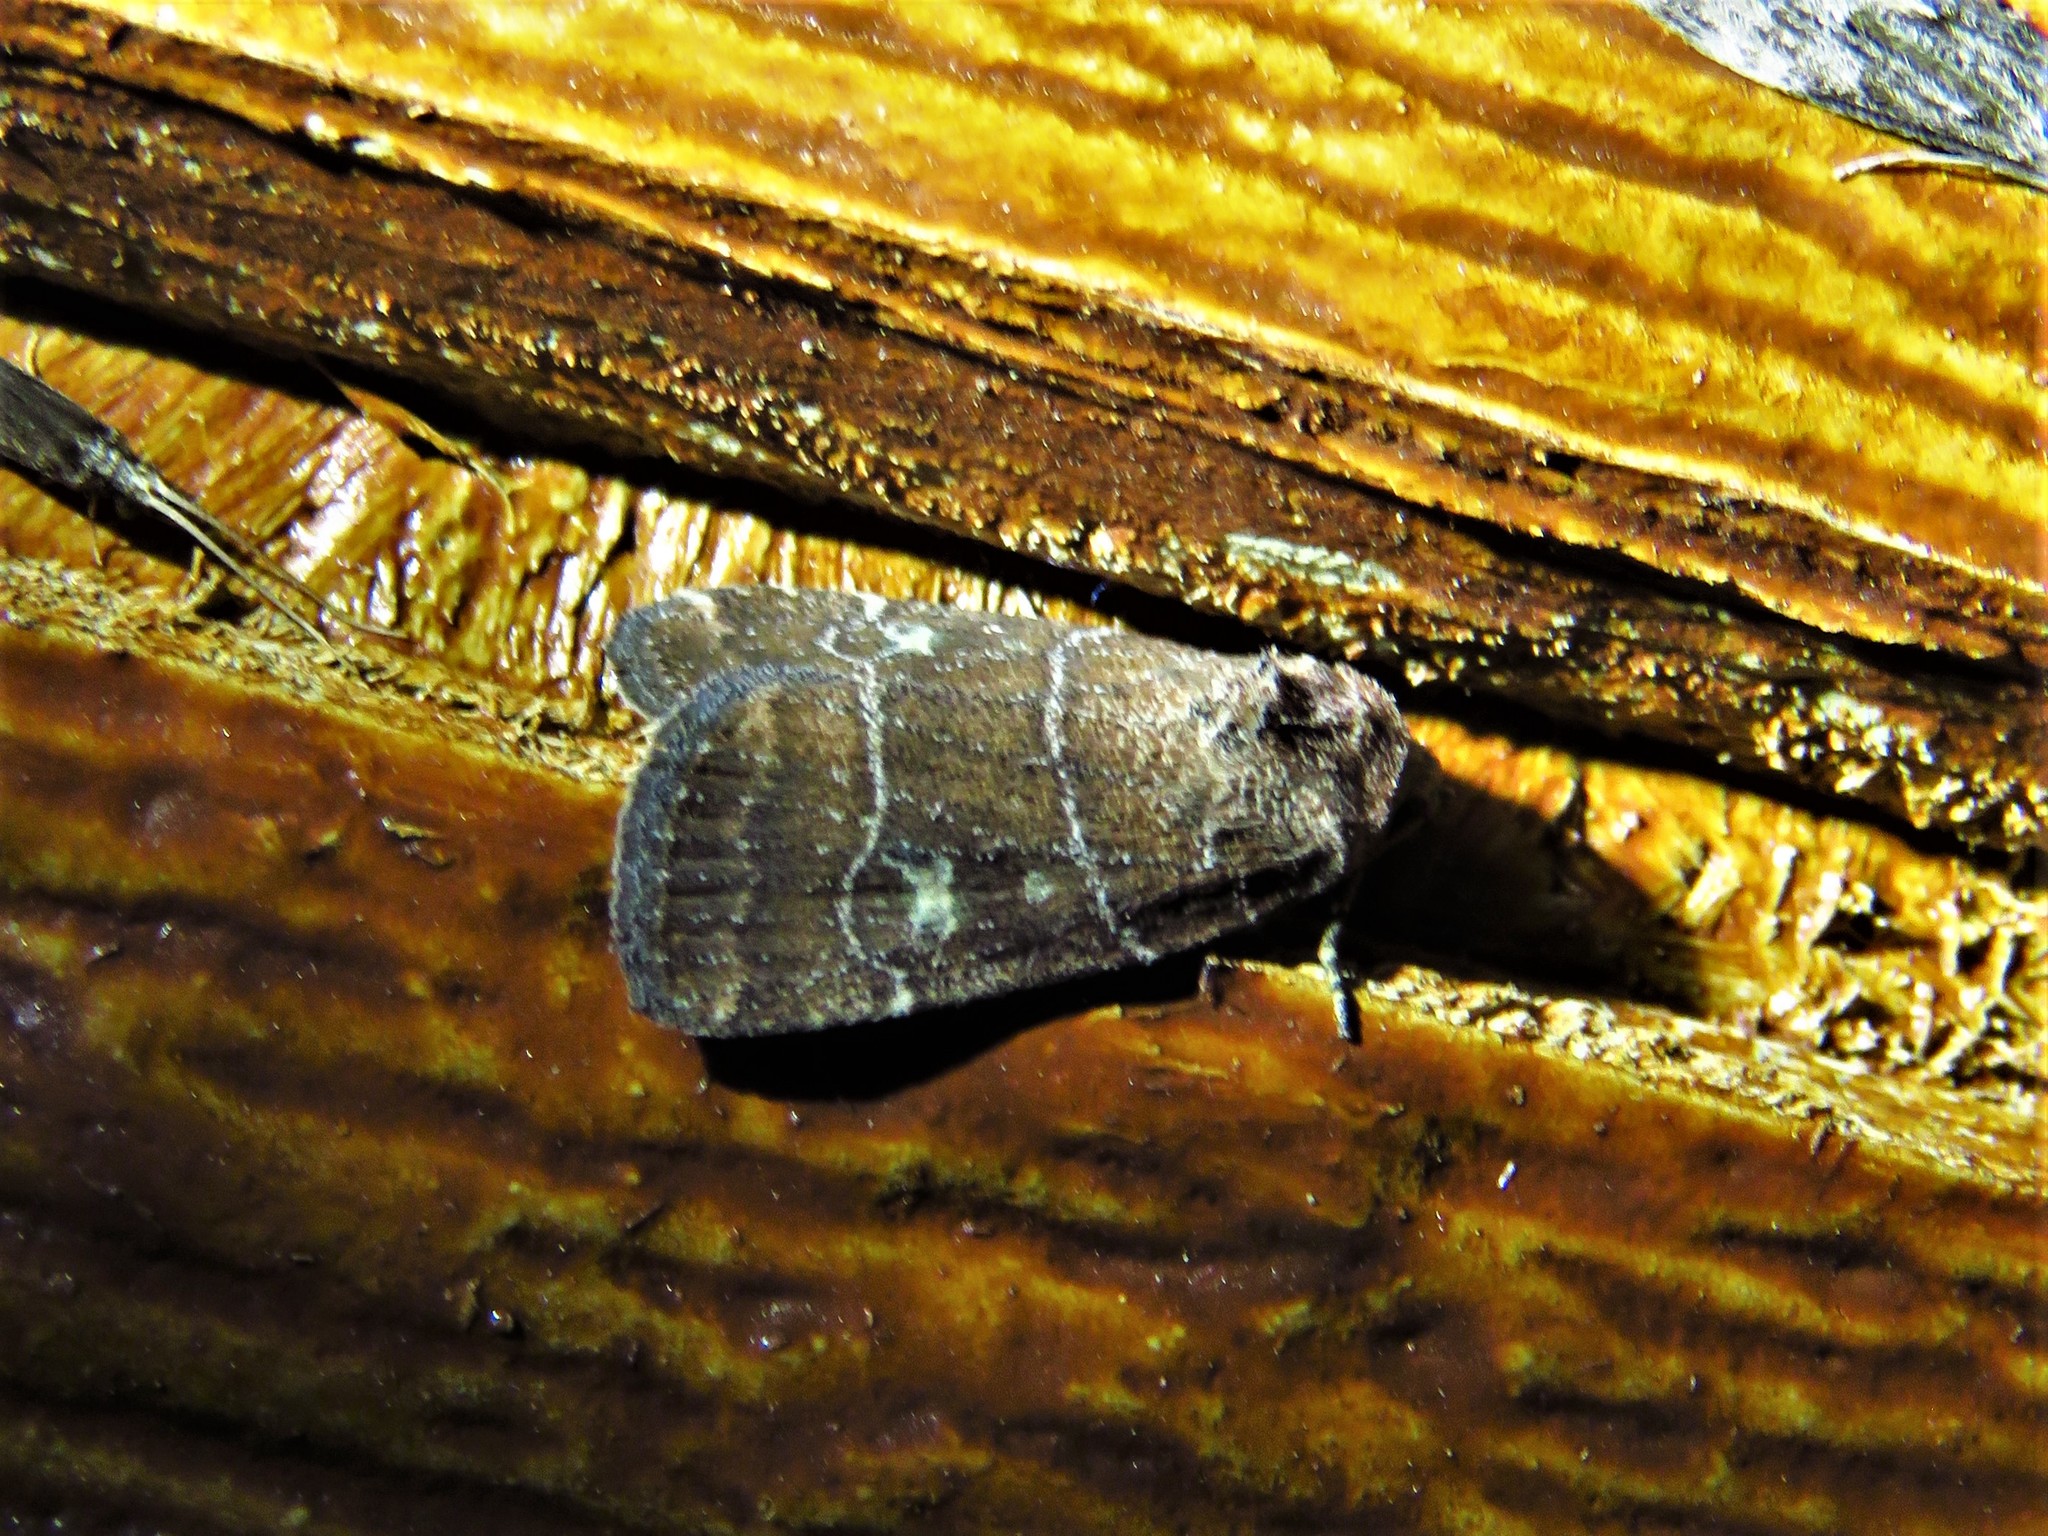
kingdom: Animalia
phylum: Arthropoda
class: Insecta
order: Lepidoptera
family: Noctuidae
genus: Elaphria
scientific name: Elaphria grata
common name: Grateful midget moth
